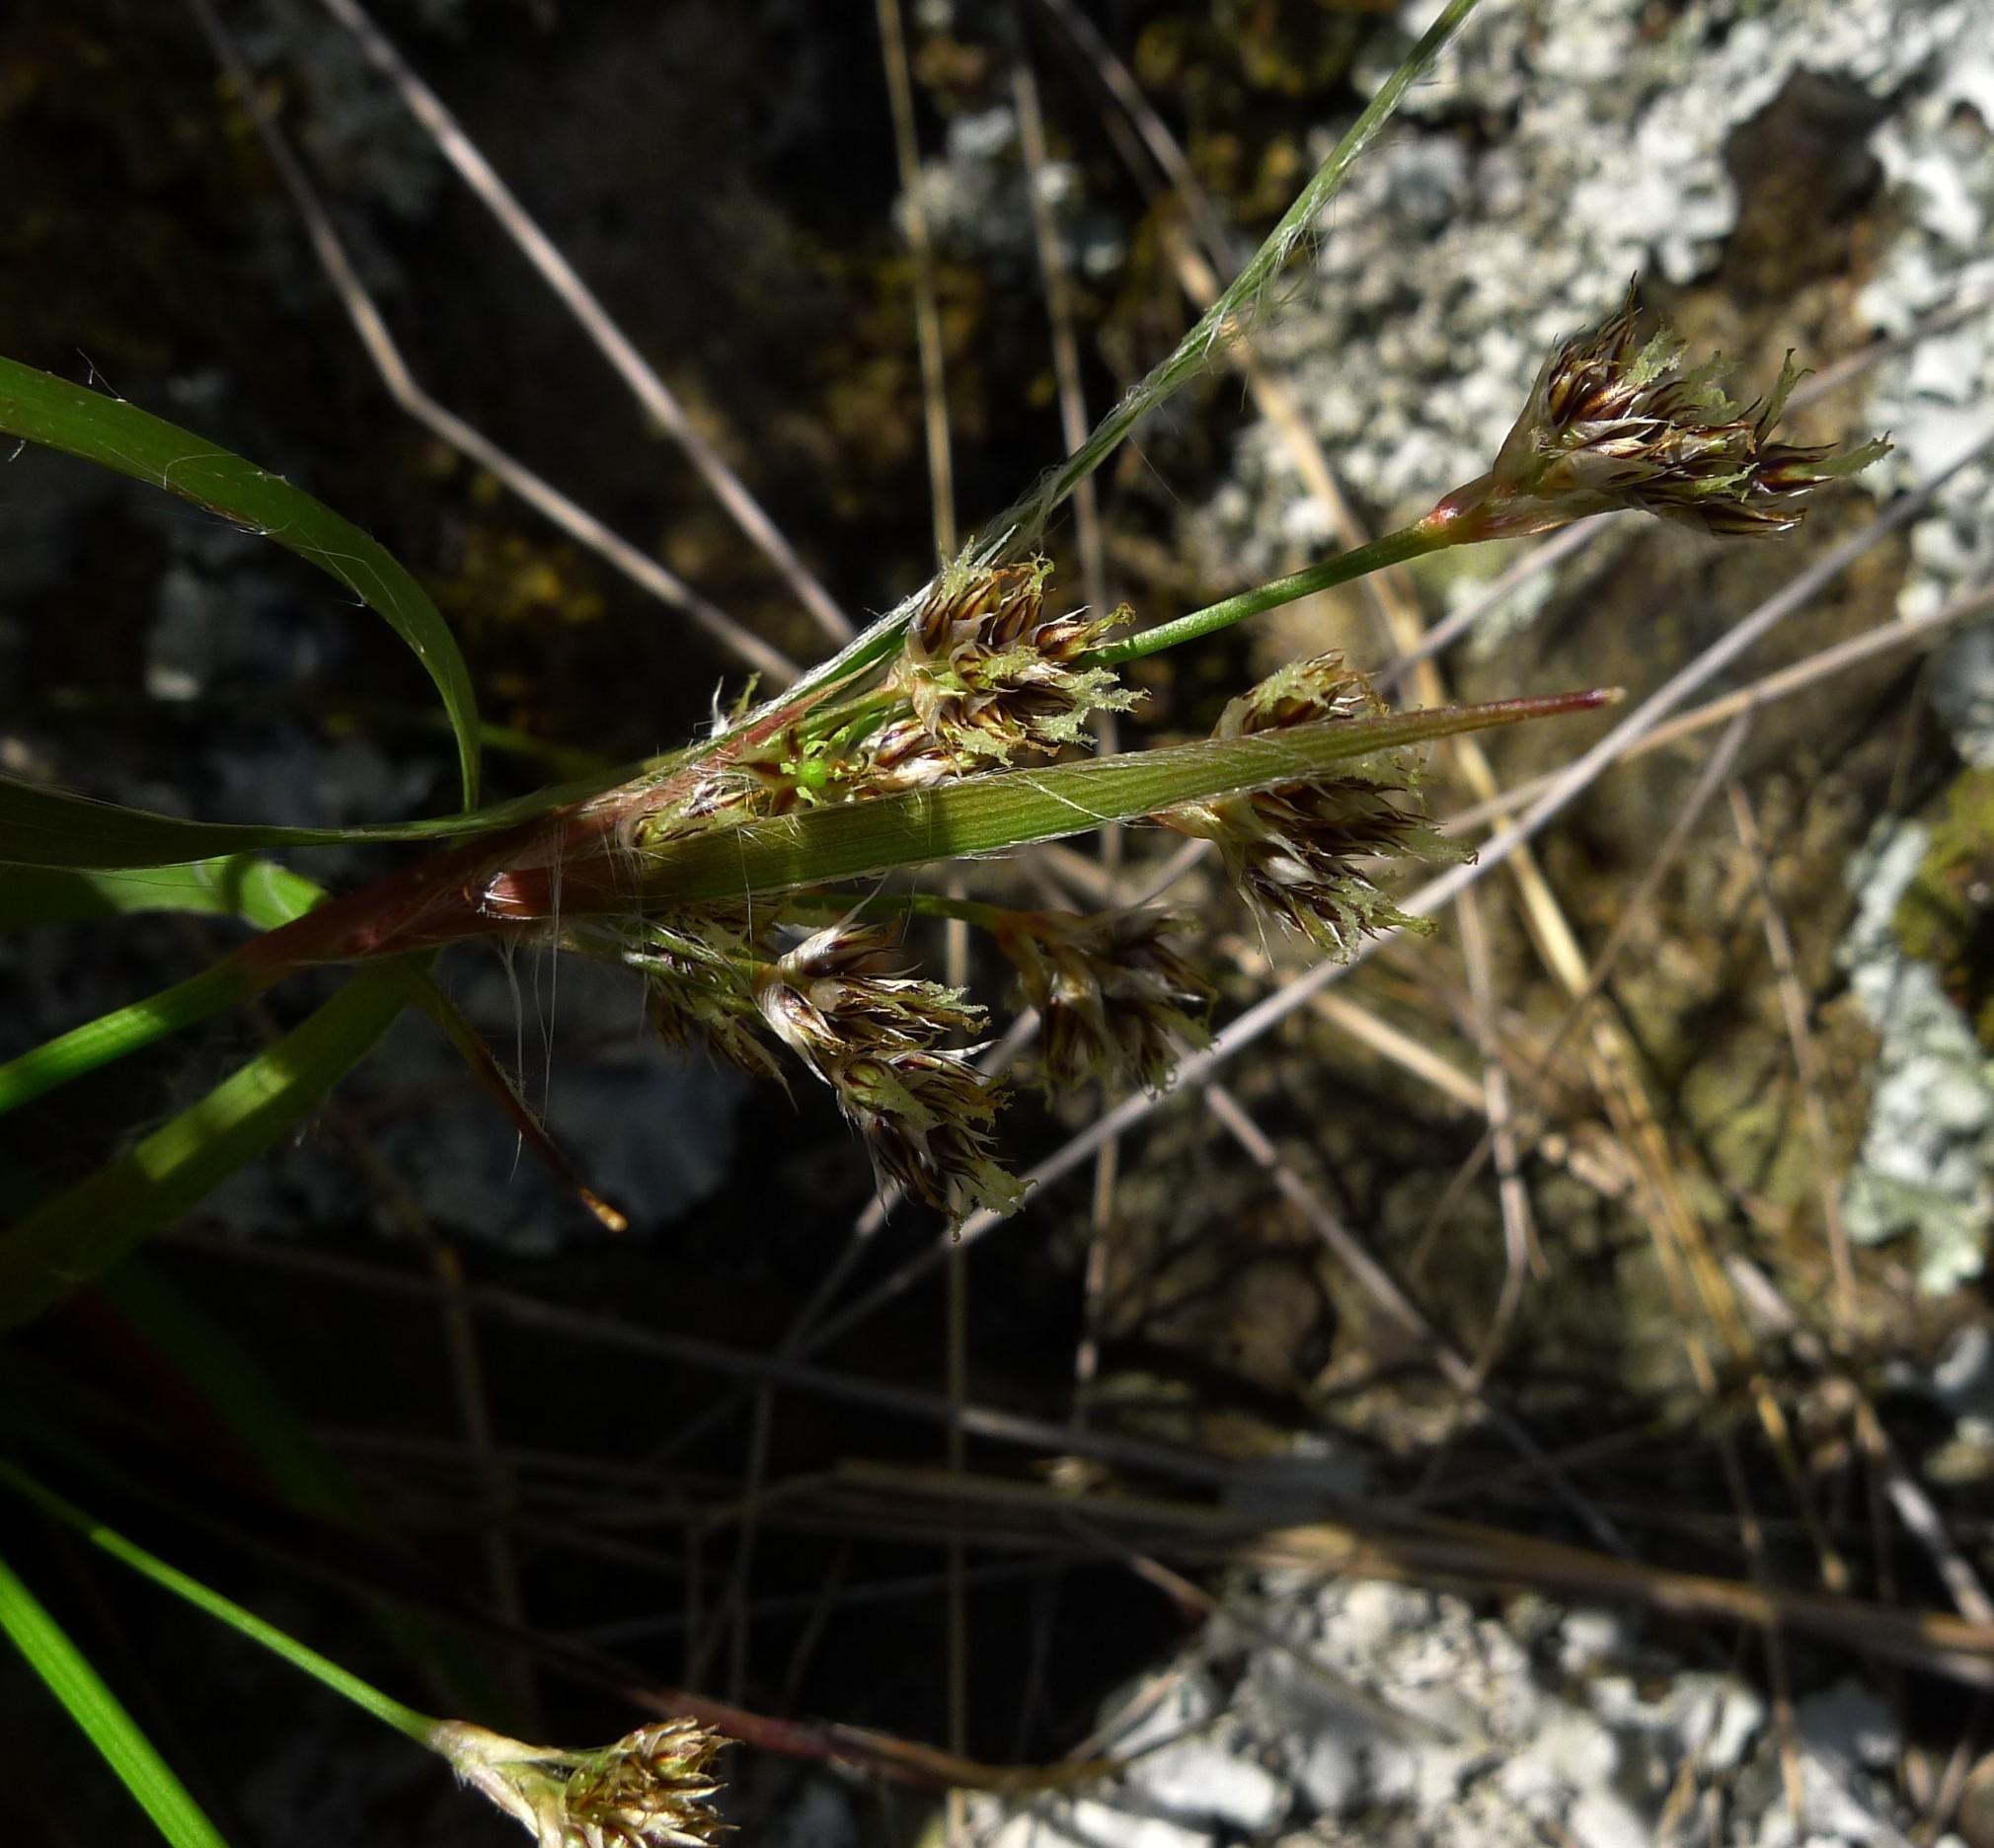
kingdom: Plantae
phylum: Tracheophyta
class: Liliopsida
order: Poales
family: Juncaceae
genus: Luzula
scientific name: Luzula banksiana
